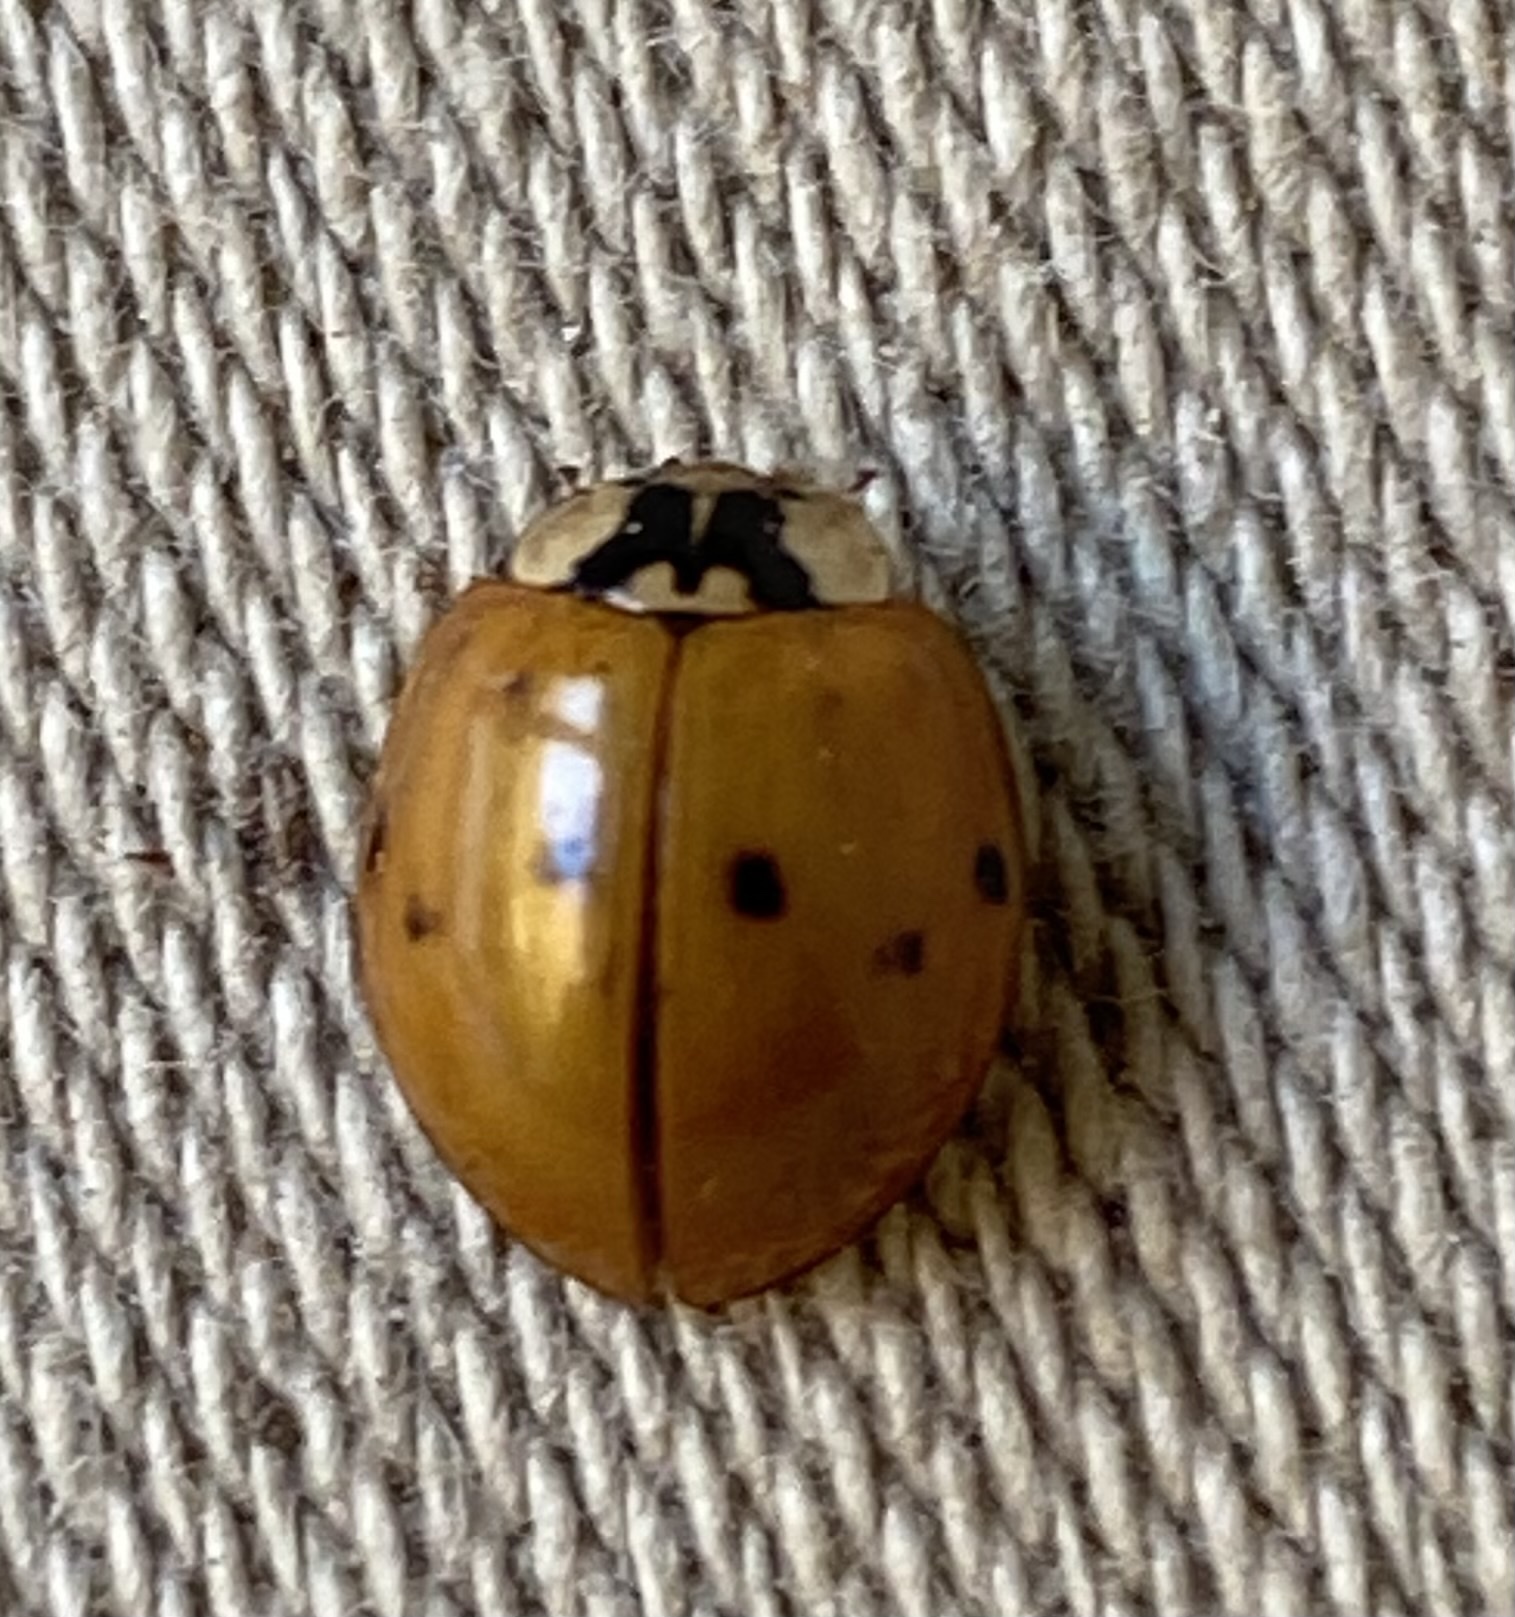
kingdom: Animalia
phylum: Arthropoda
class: Insecta
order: Coleoptera
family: Coccinellidae
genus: Harmonia
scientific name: Harmonia axyridis
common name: Harlequin ladybird
